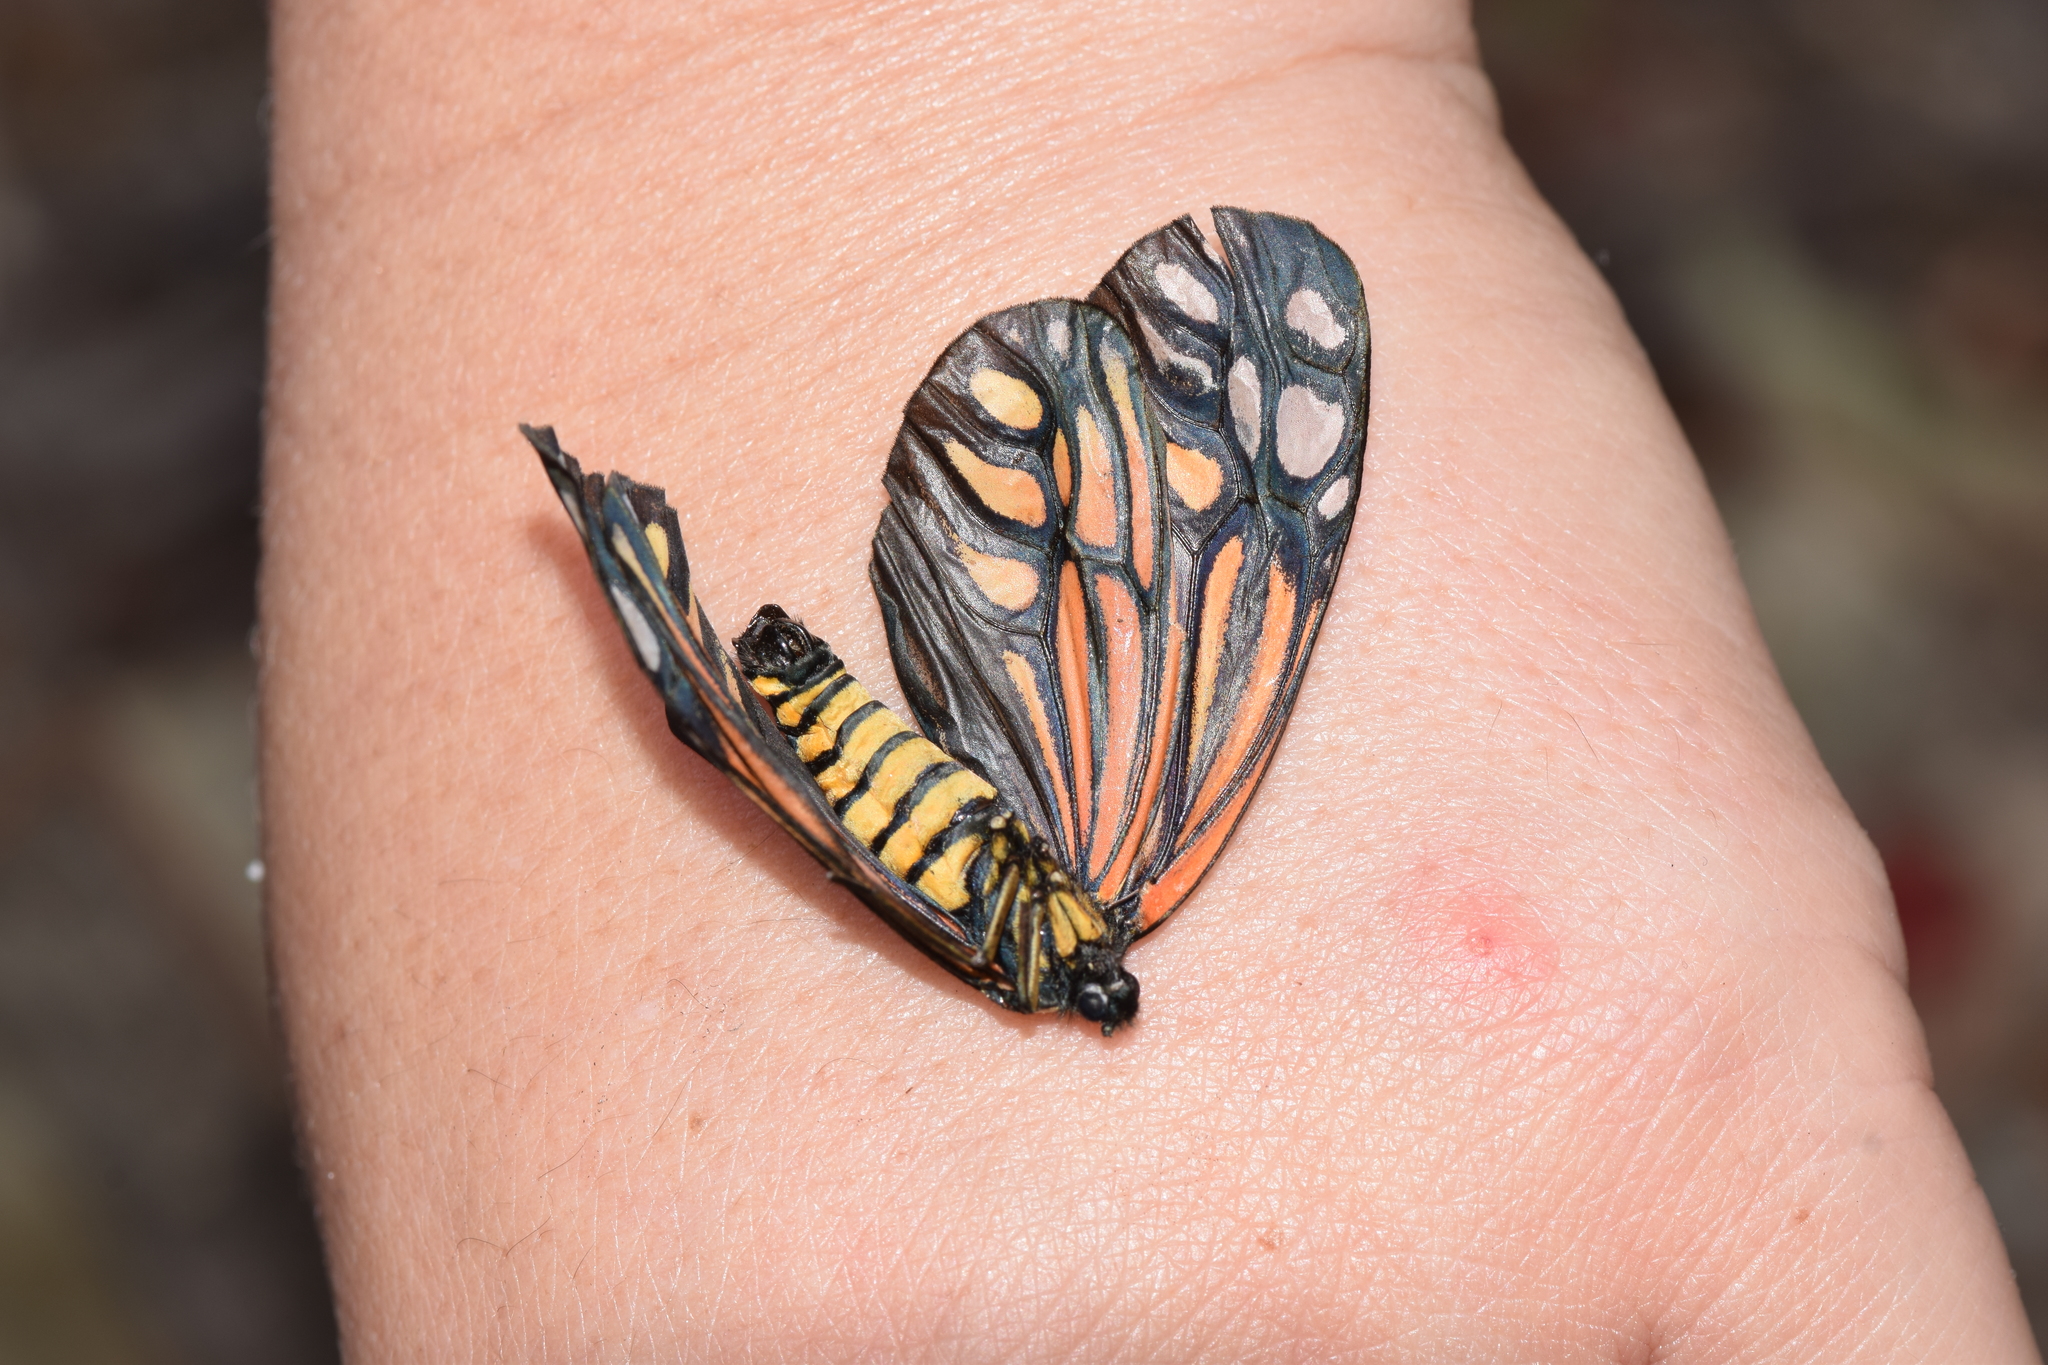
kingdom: Animalia
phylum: Arthropoda
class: Insecta
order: Lepidoptera
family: Zygaenidae
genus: Campylotes
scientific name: Campylotes histrionicus
